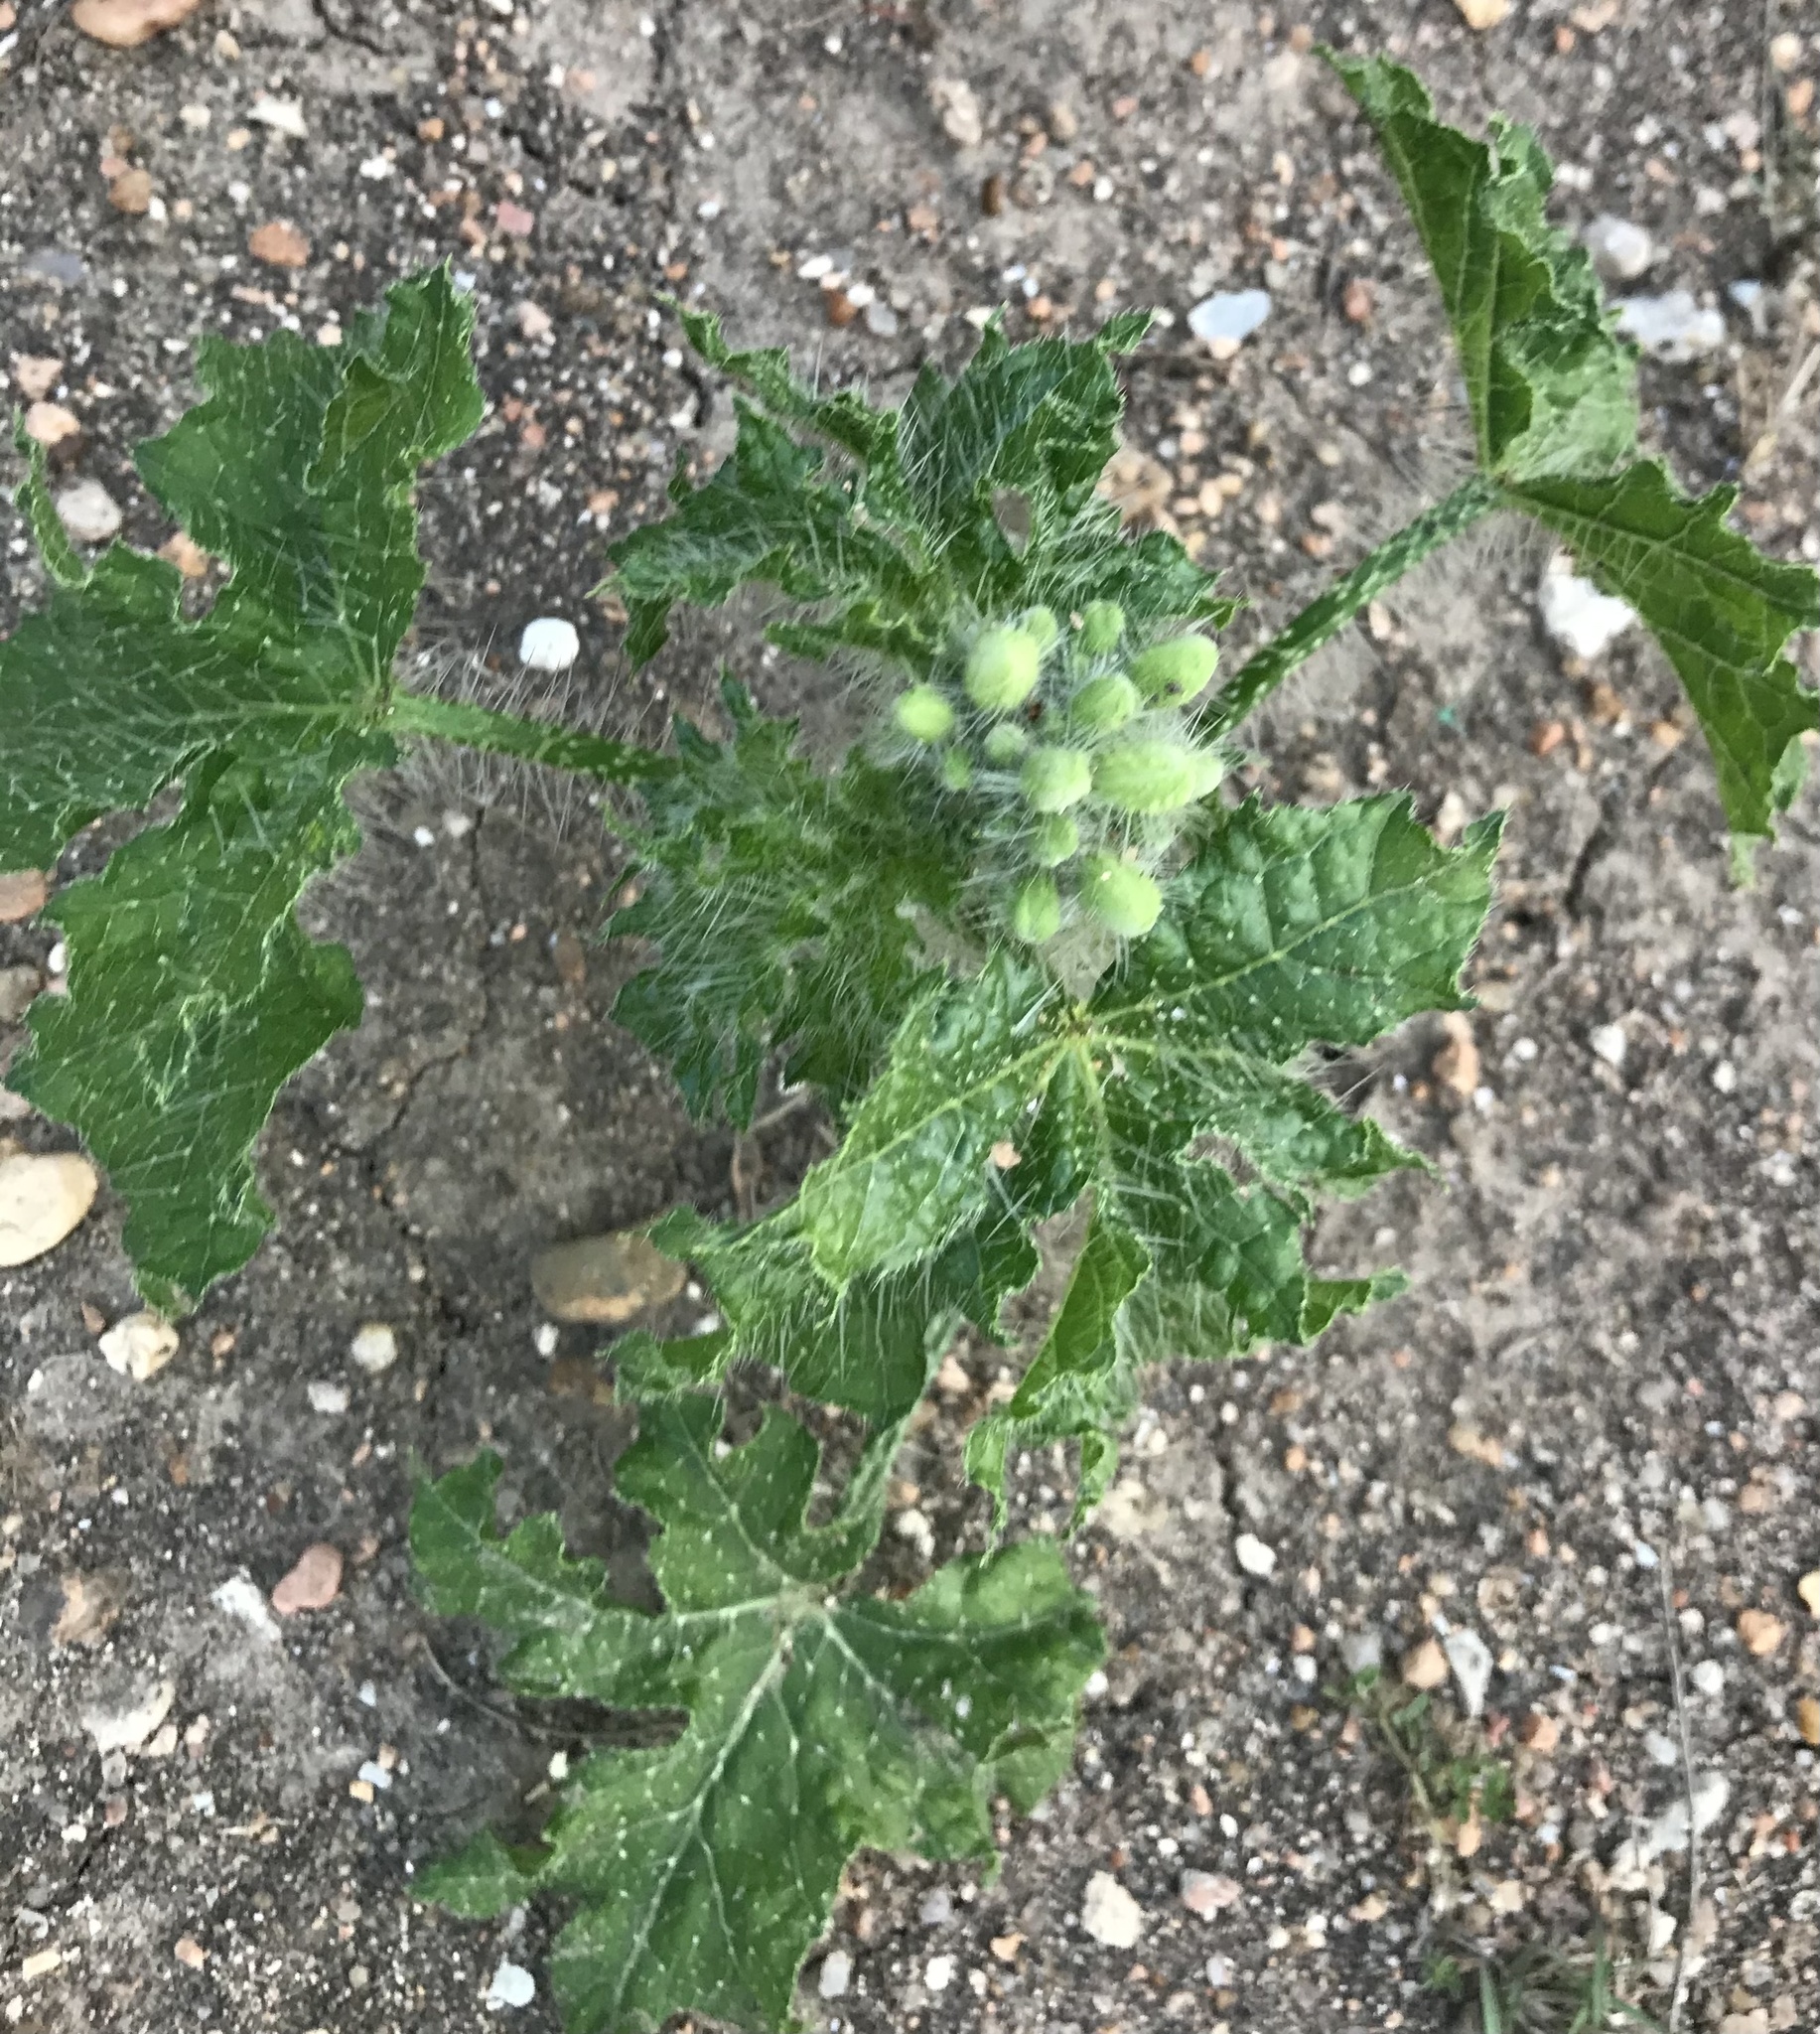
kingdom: Plantae
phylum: Tracheophyta
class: Magnoliopsida
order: Malpighiales
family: Euphorbiaceae
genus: Cnidoscolus
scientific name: Cnidoscolus texanus
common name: Texas bull-nettle
